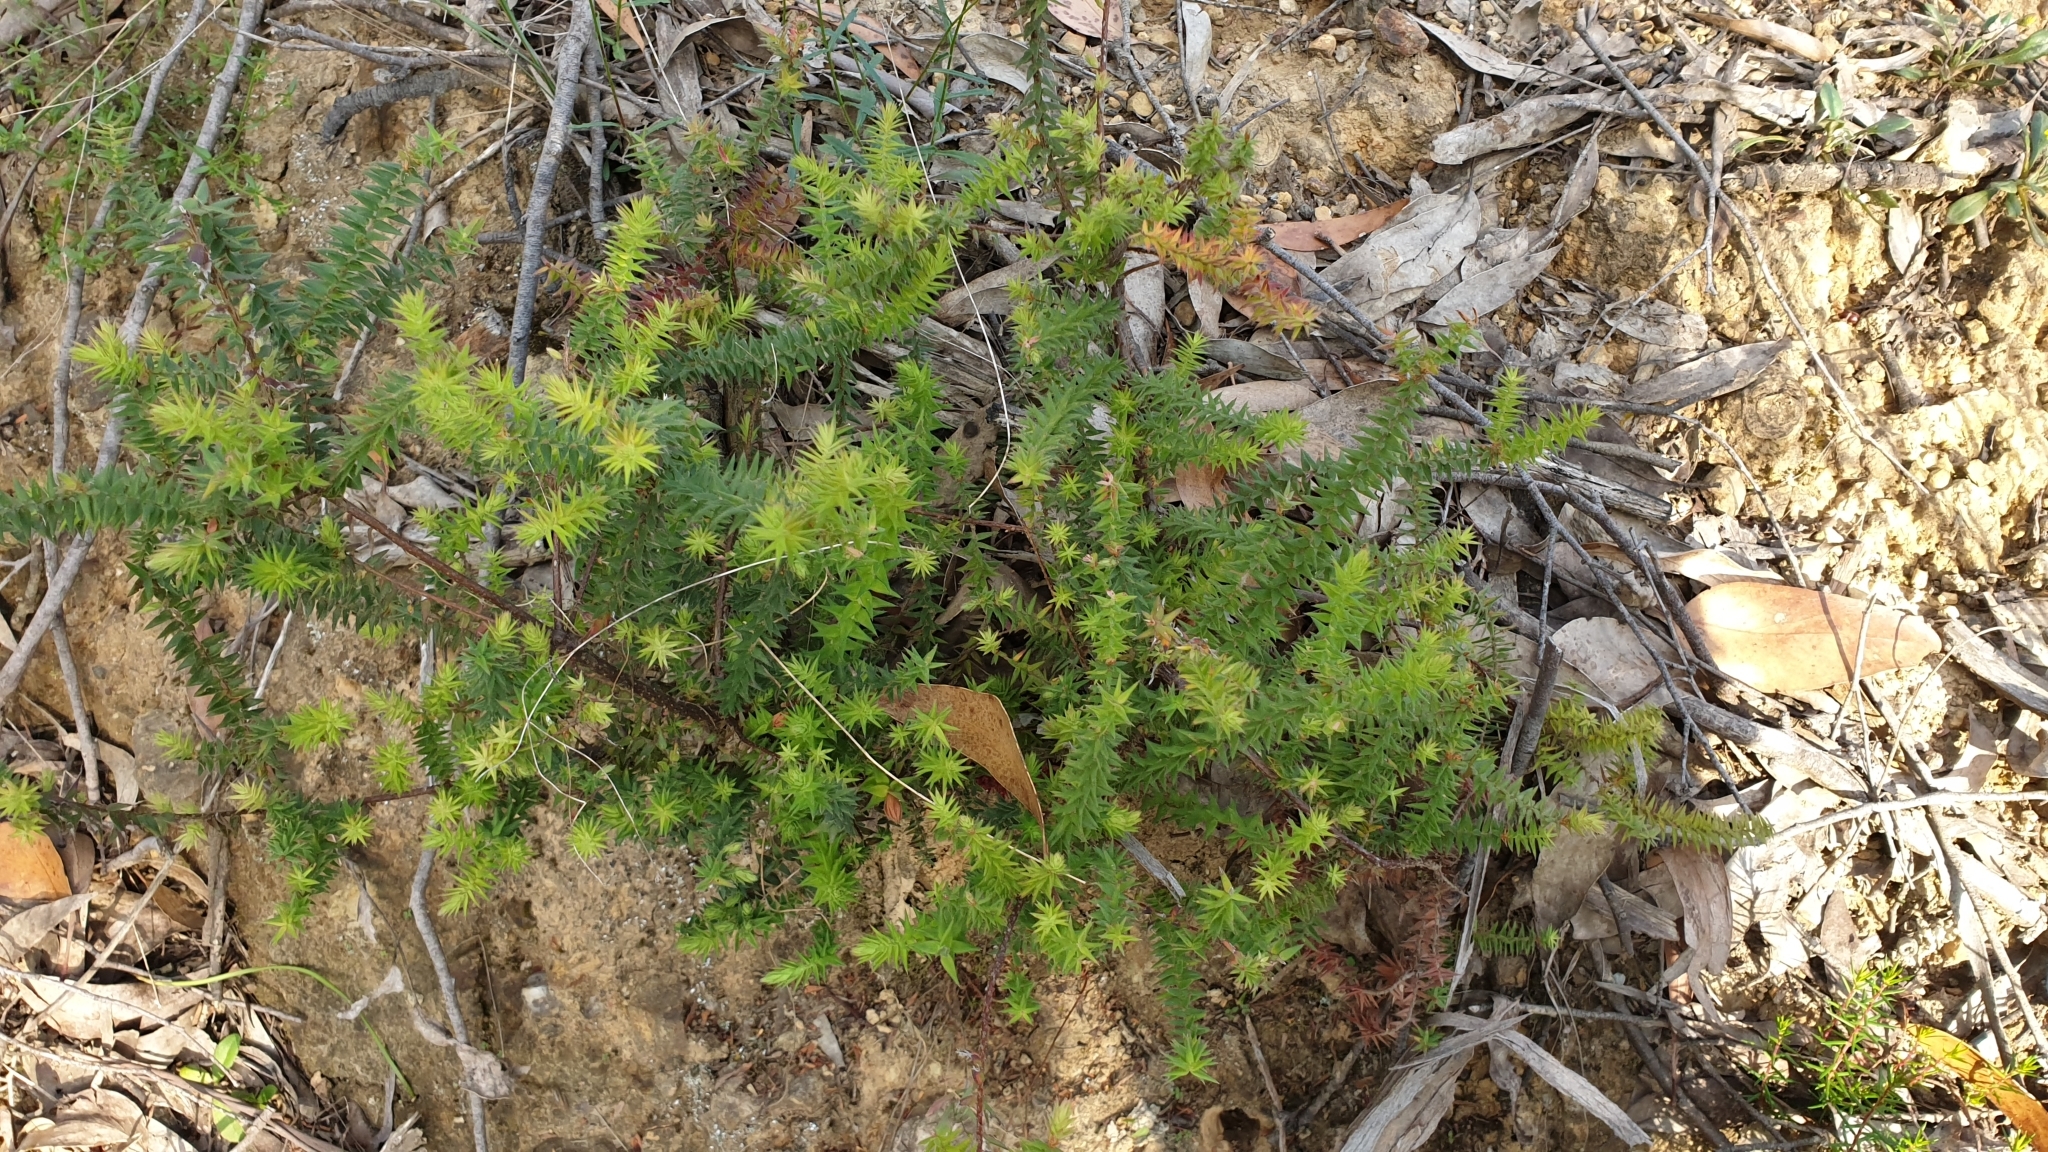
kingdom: Plantae
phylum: Tracheophyta
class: Magnoliopsida
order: Ericales
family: Ericaceae
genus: Acrotriche
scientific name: Acrotriche fasciculiflora
